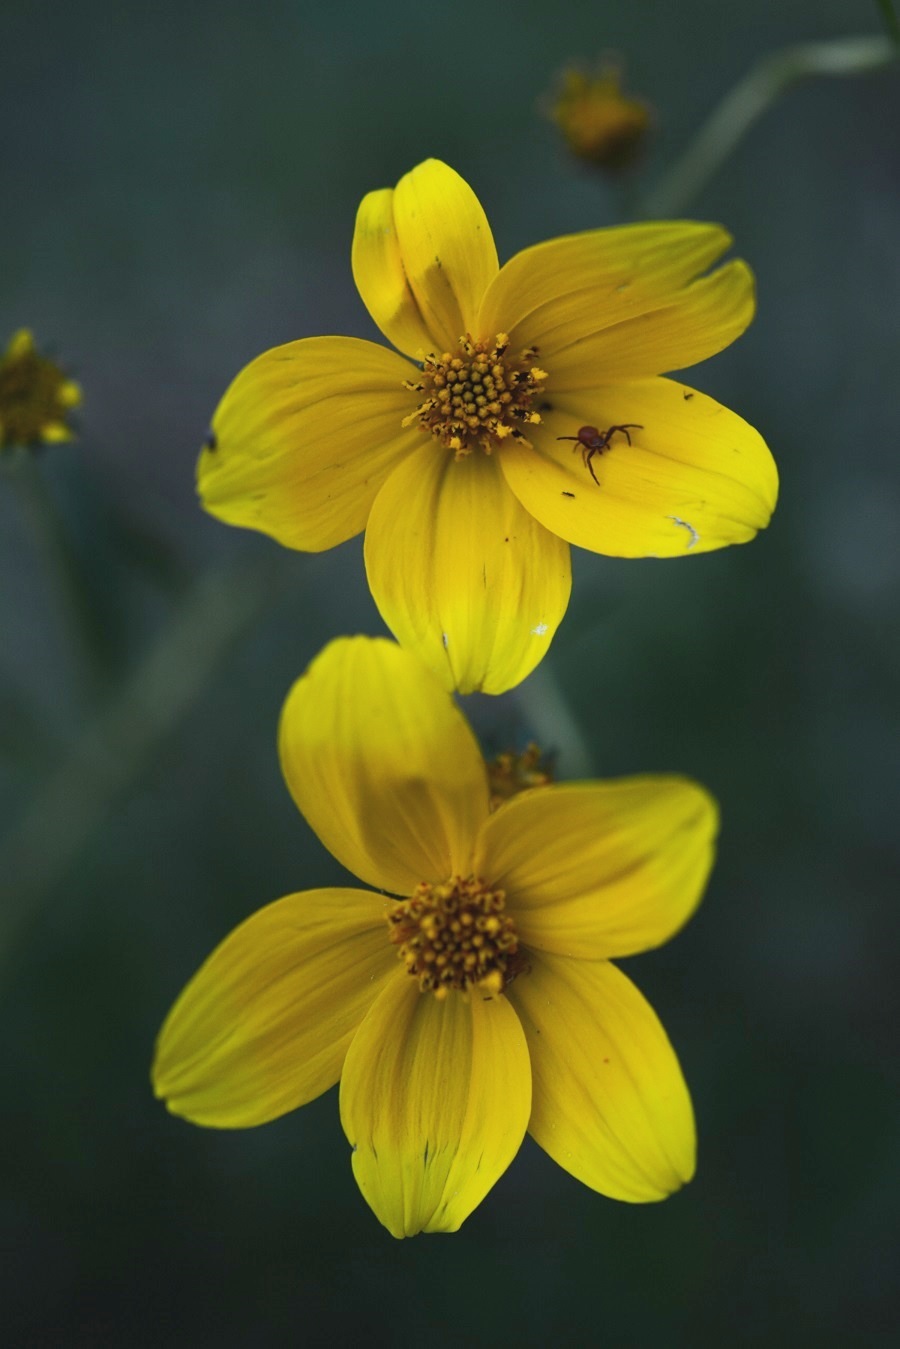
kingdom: Plantae
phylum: Tracheophyta
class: Magnoliopsida
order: Asterales
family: Asteraceae
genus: Bidens
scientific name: Bidens aurea
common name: Arizona beggar-ticks
